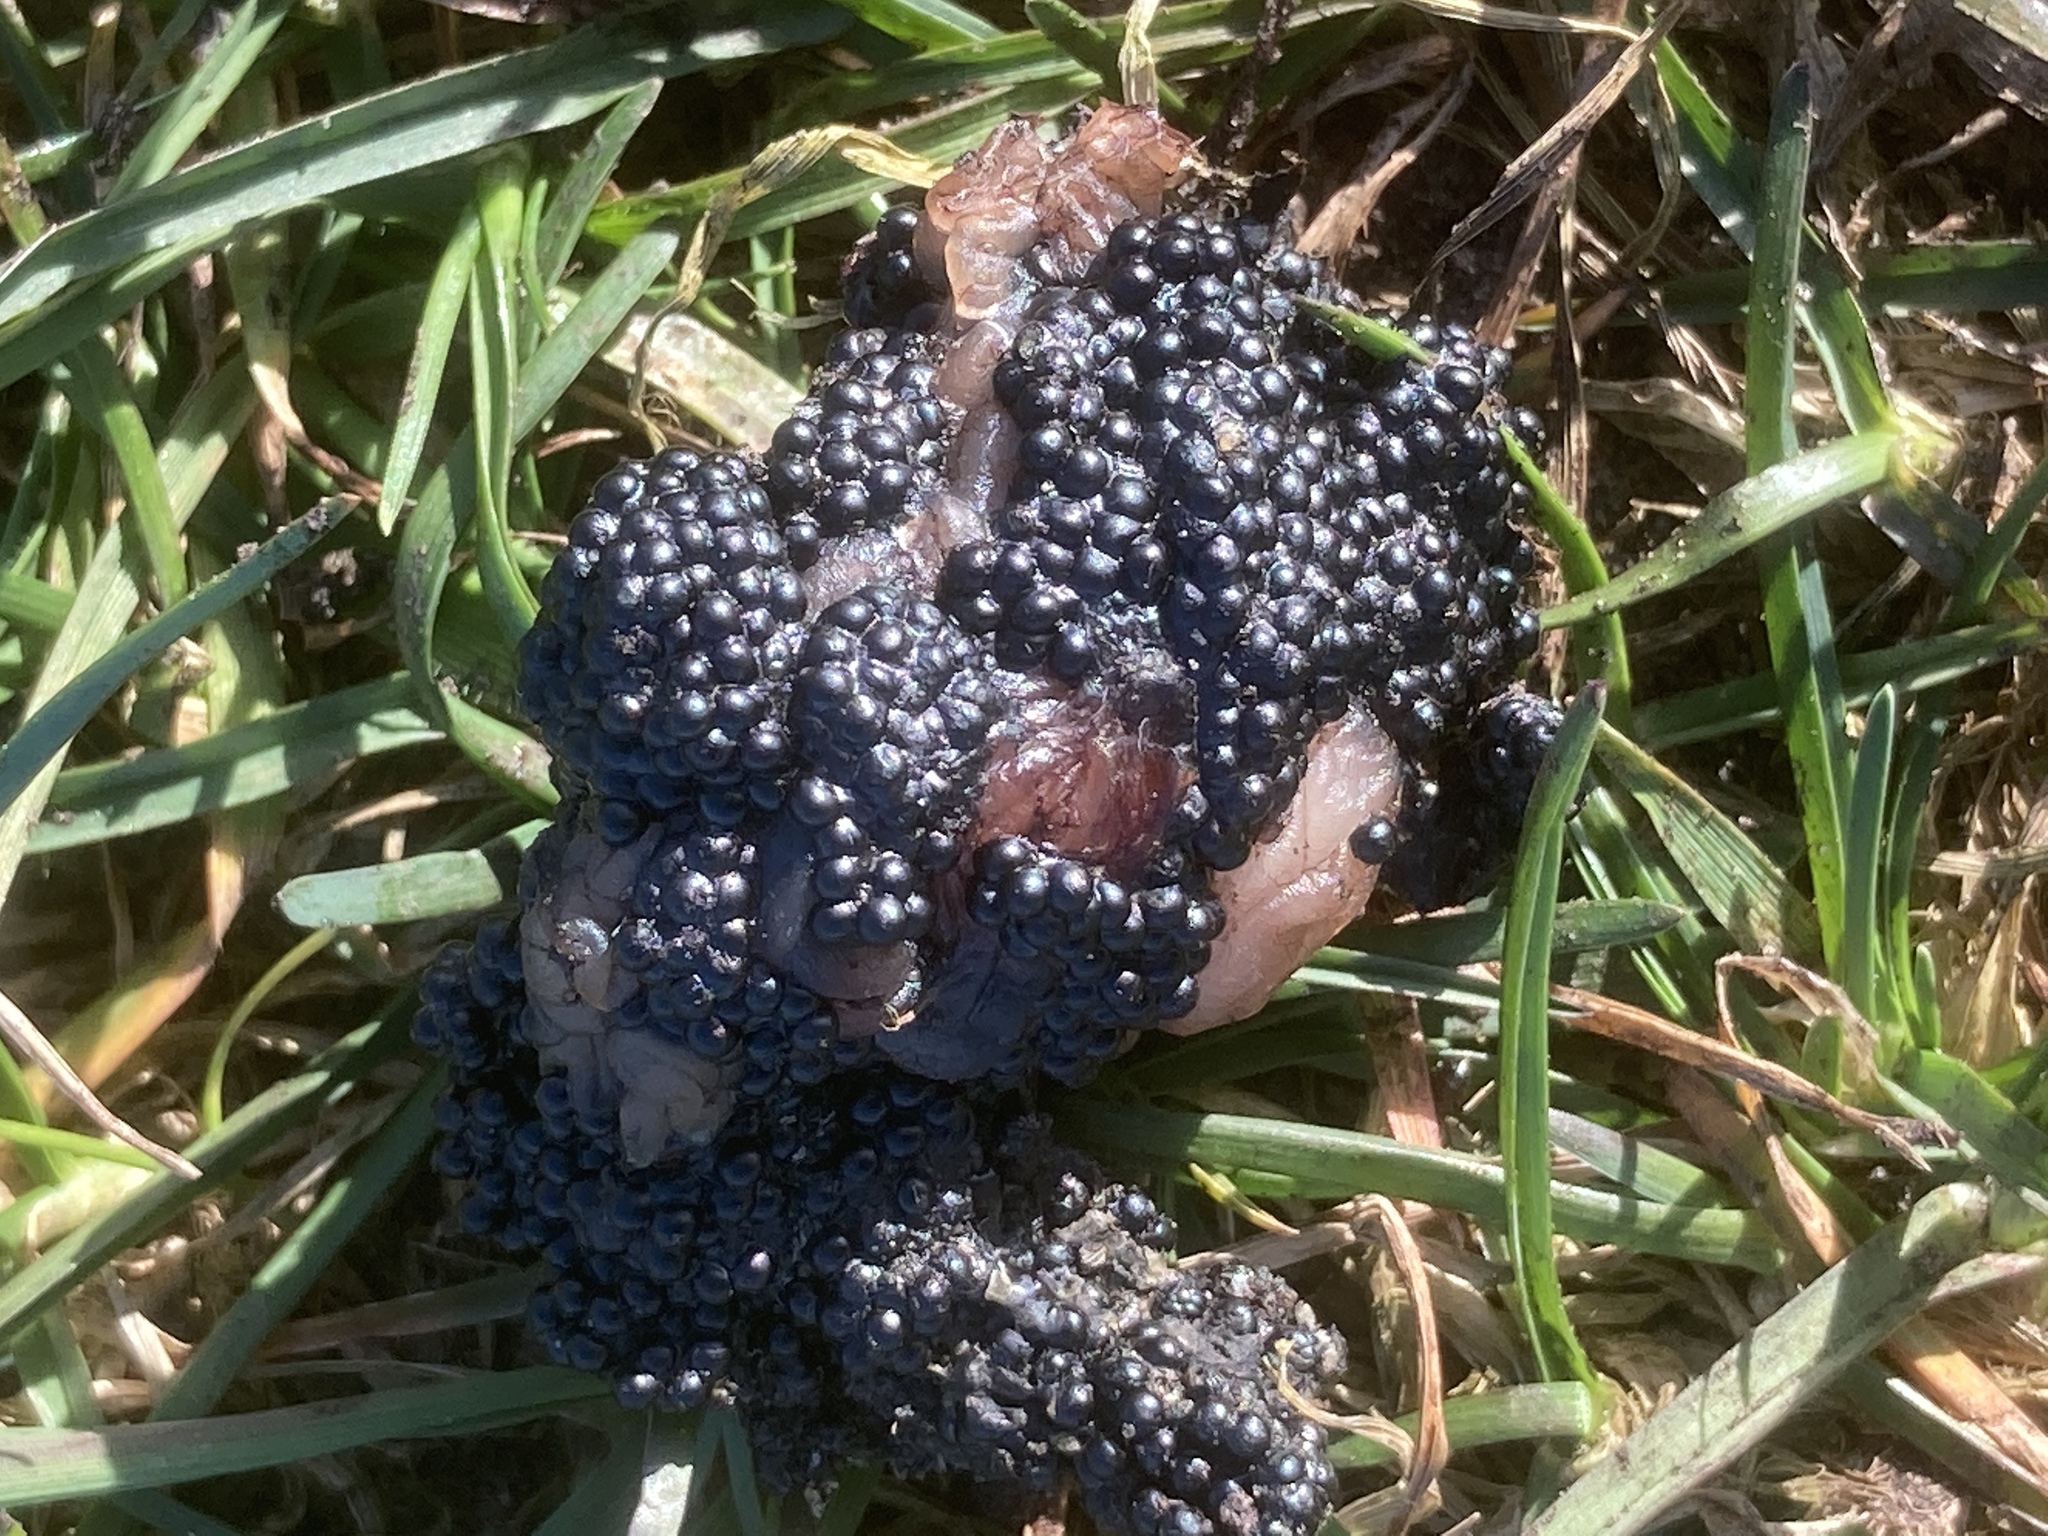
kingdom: Animalia
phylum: Chordata
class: Amphibia
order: Anura
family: Ranidae
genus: Rana
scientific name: Rana temporaria
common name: Common frog
